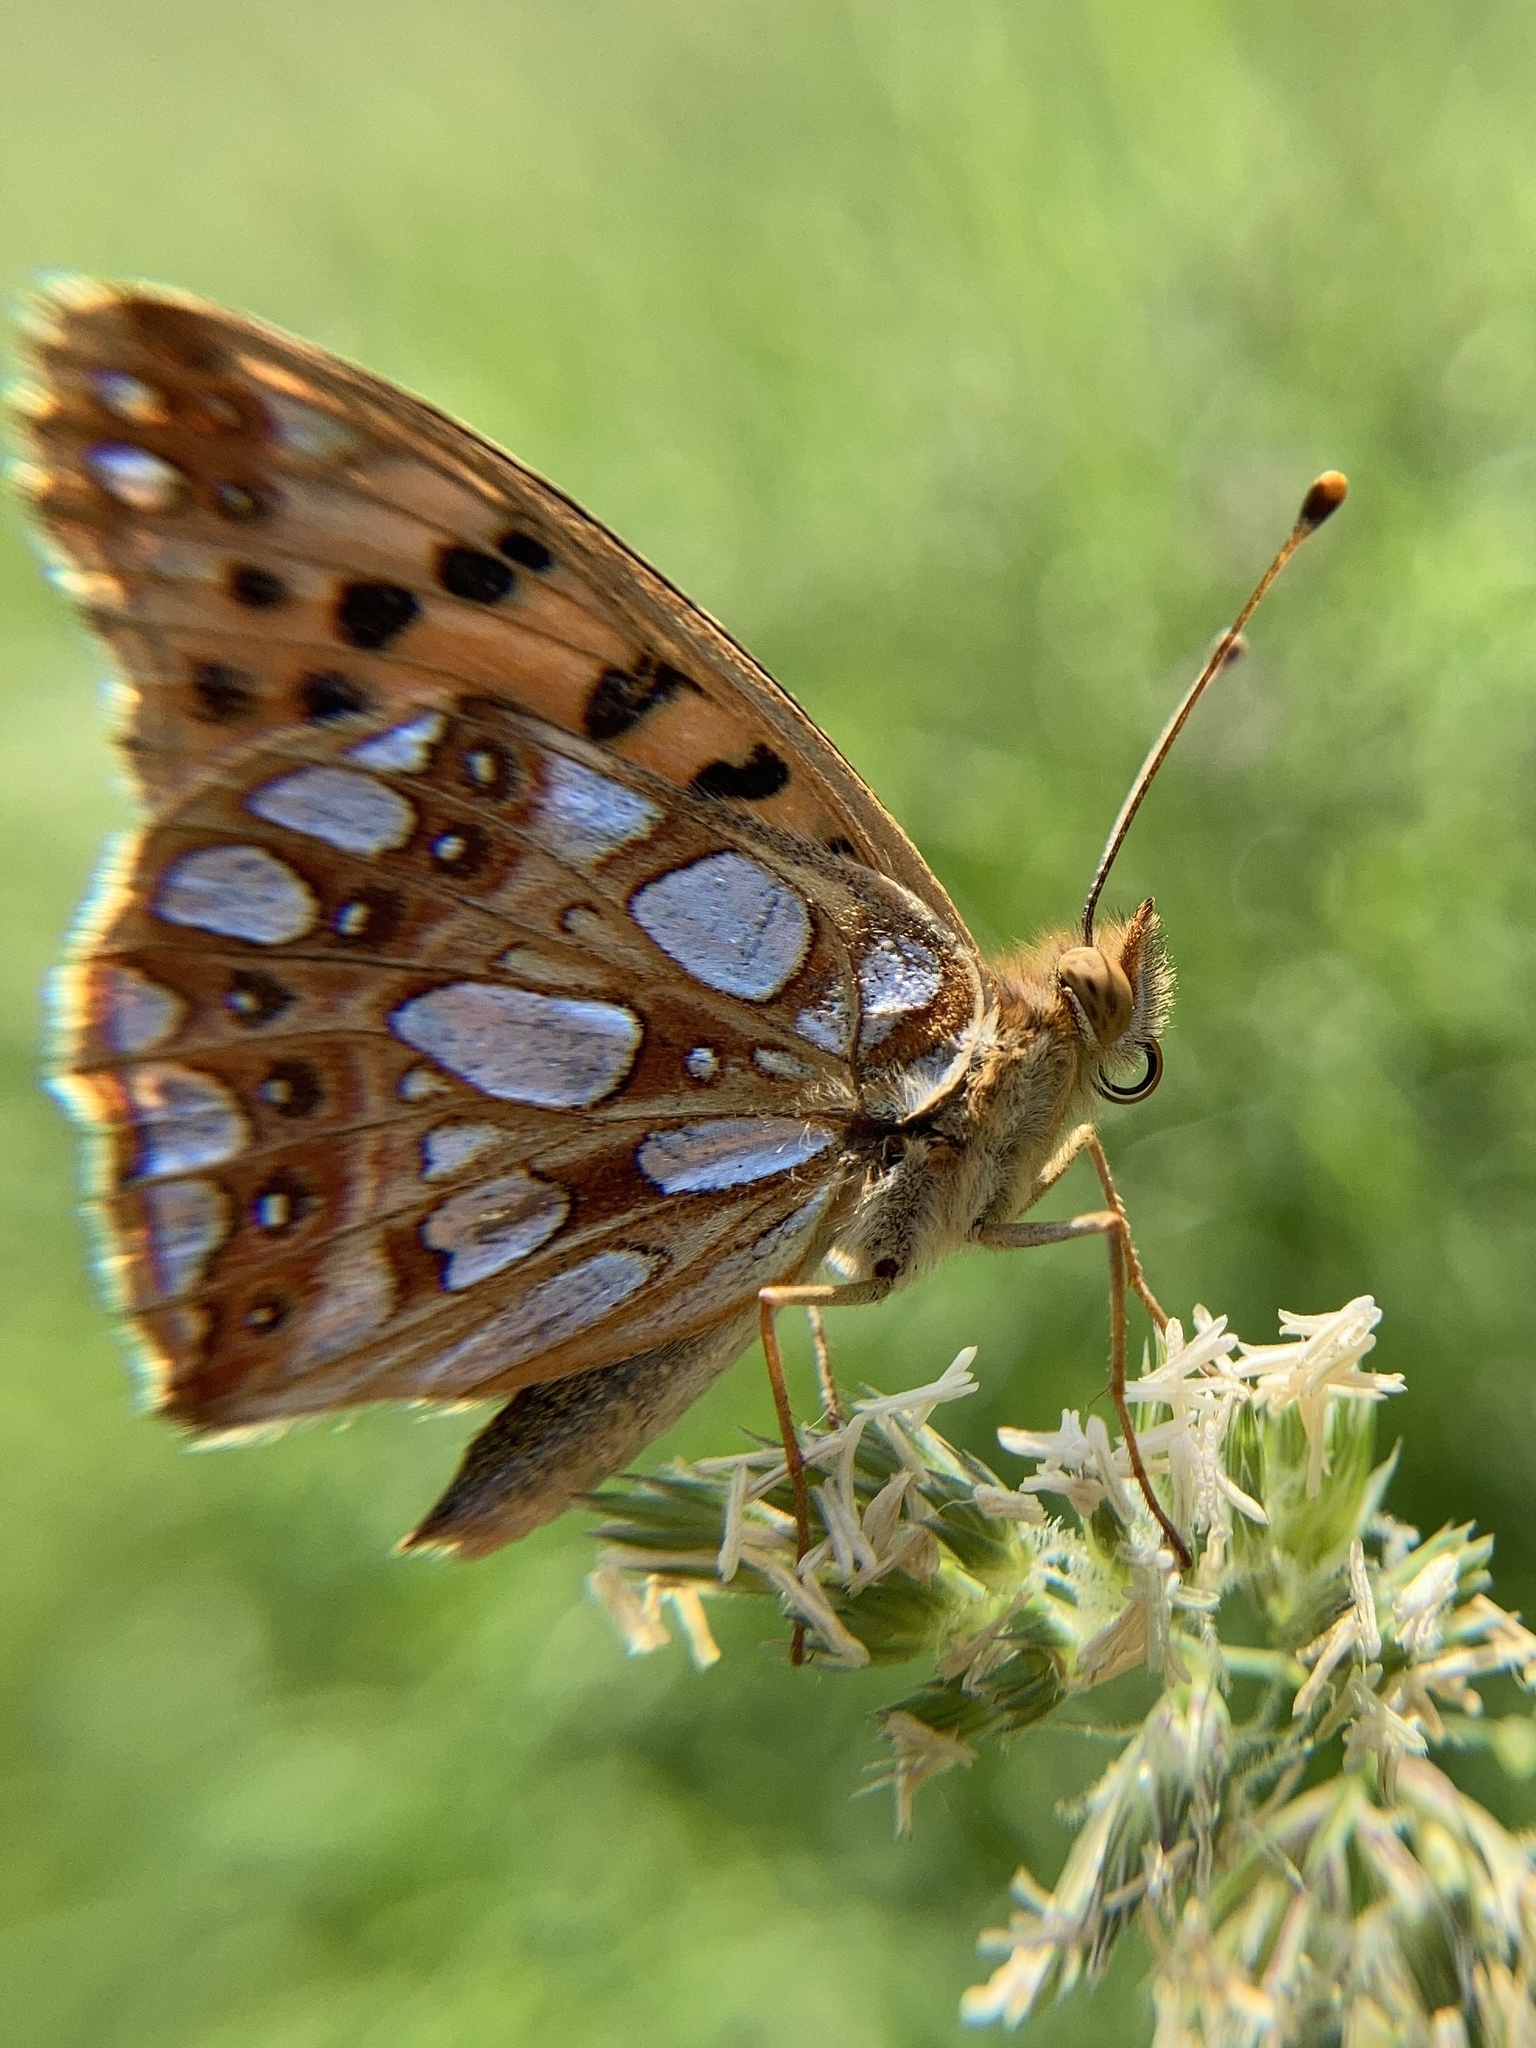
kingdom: Animalia
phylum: Arthropoda
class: Insecta
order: Lepidoptera
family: Nymphalidae
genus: Issoria
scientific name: Issoria lathonia
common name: Queen of spain fritillary
